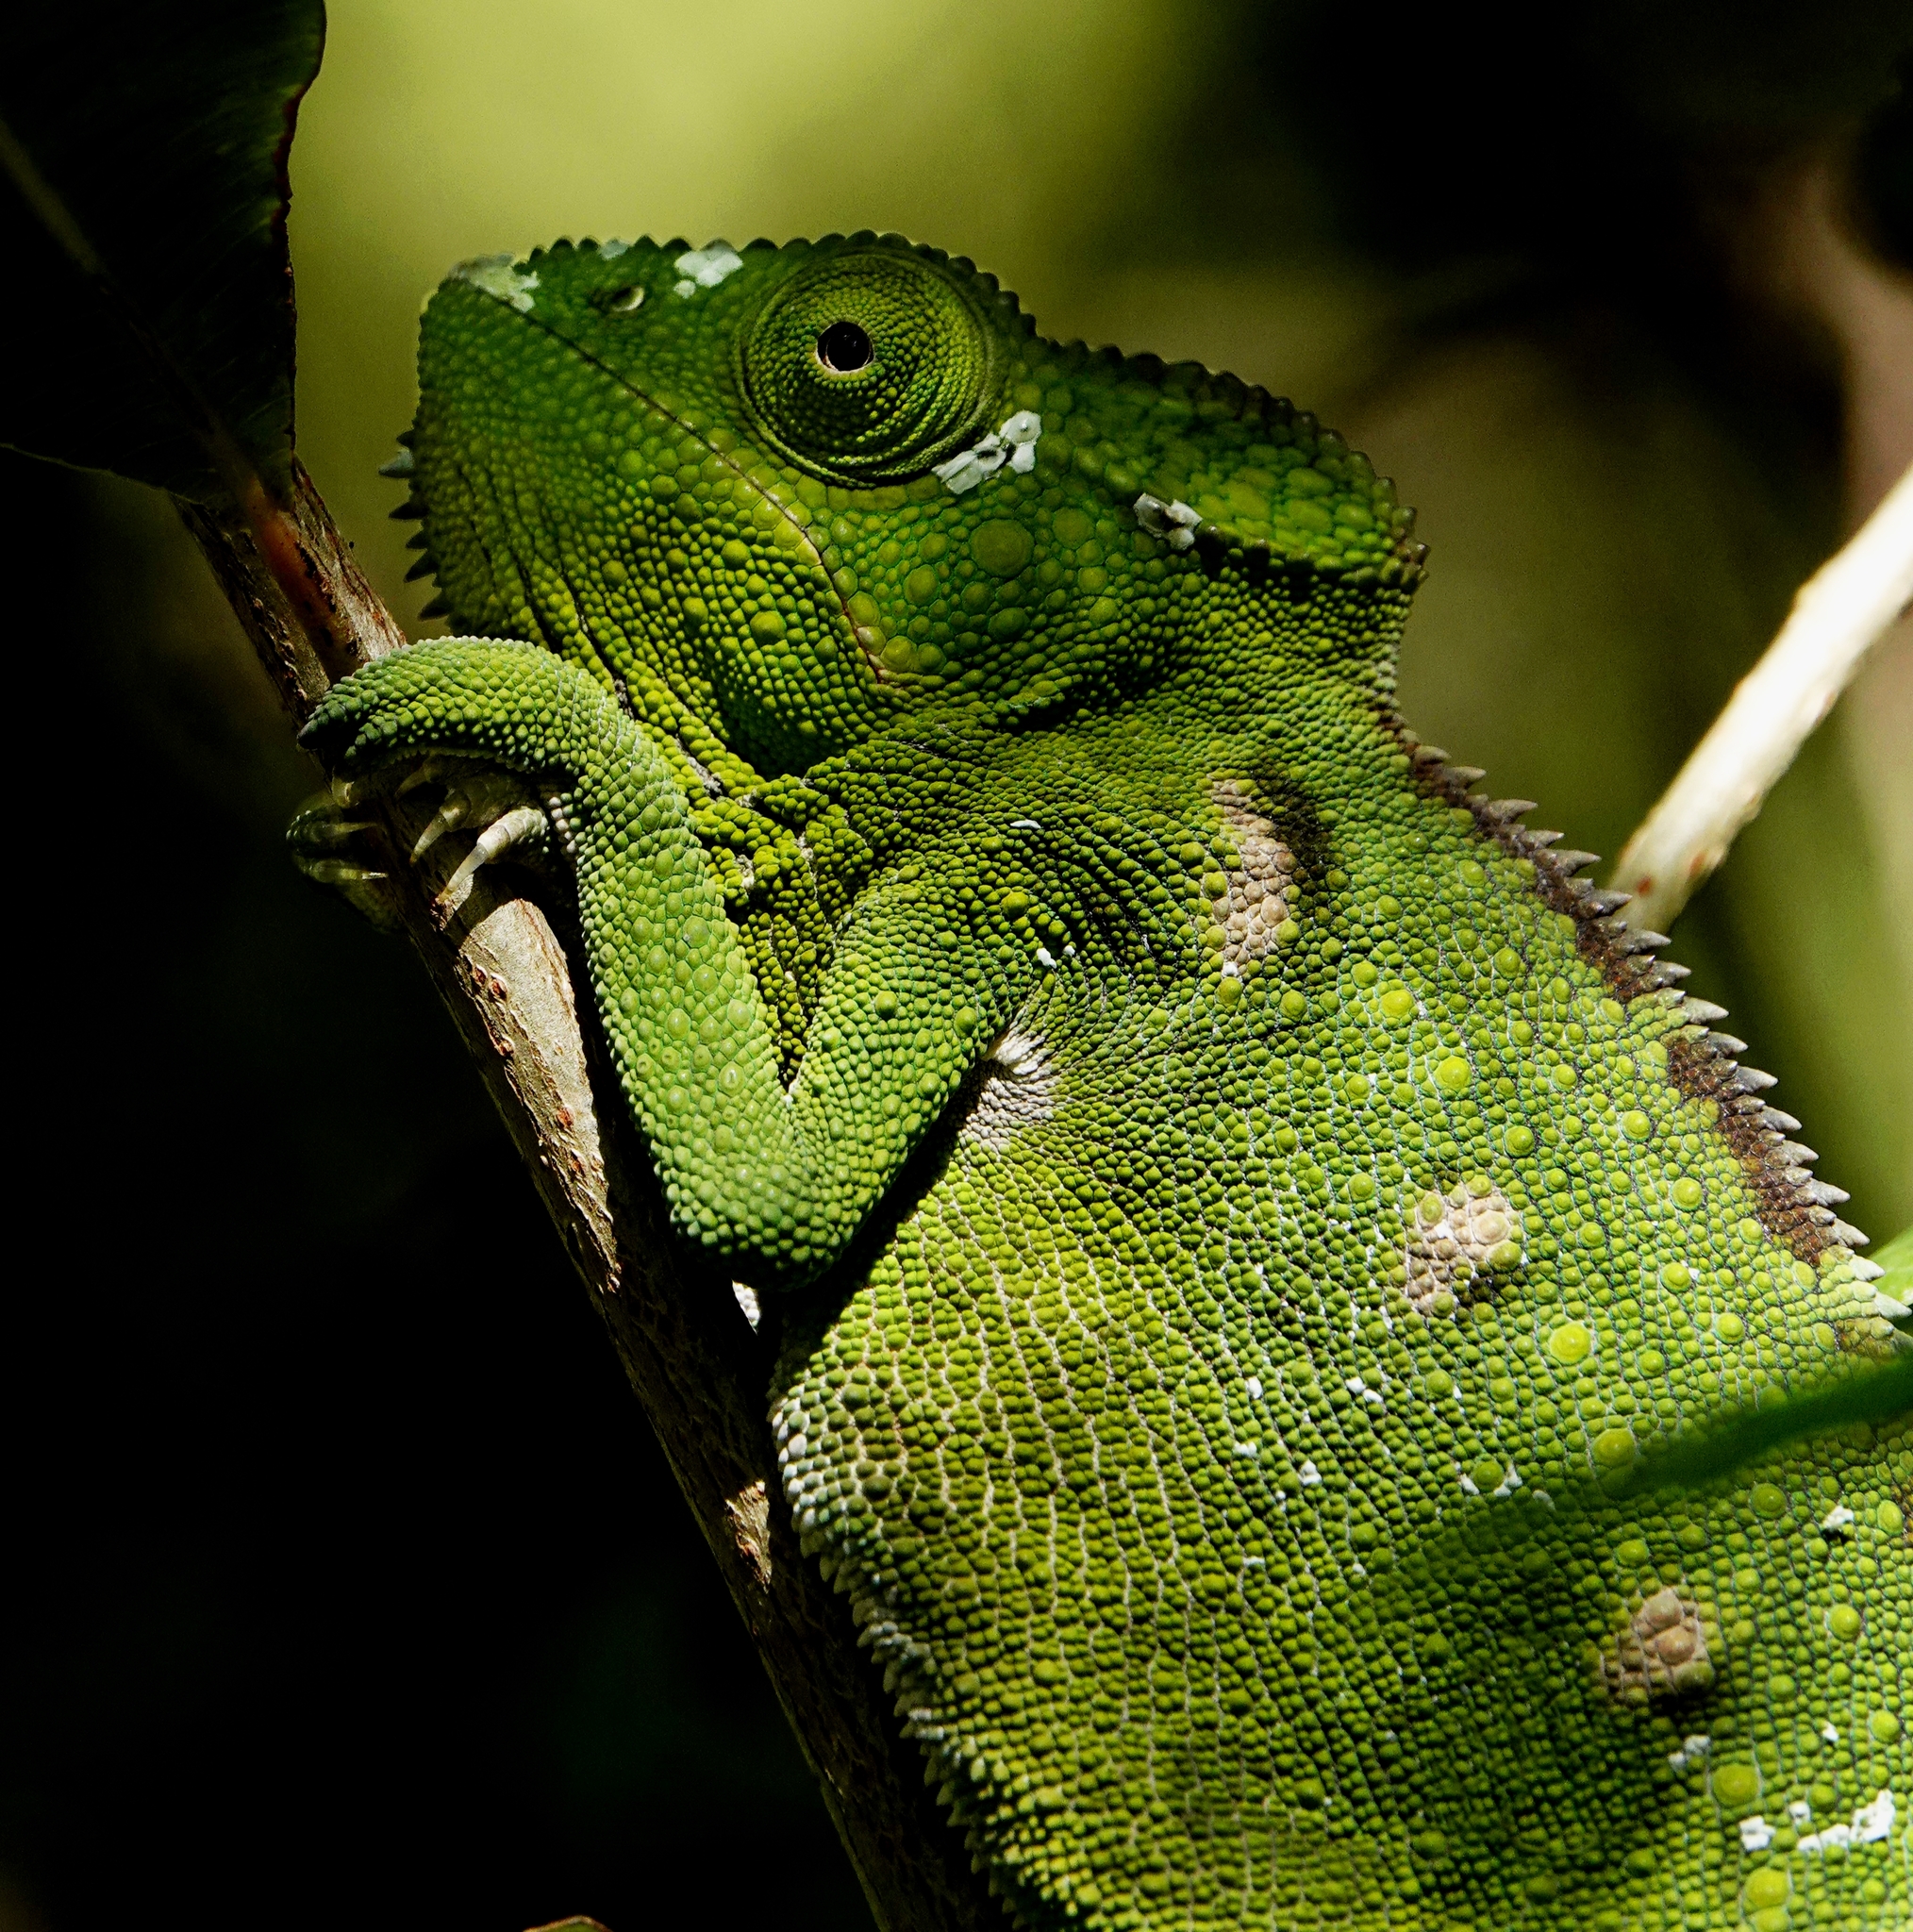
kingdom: Animalia
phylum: Chordata
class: Squamata
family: Chamaeleonidae
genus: Furcifer
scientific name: Furcifer oustaleti
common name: Oustalet's chameleon
